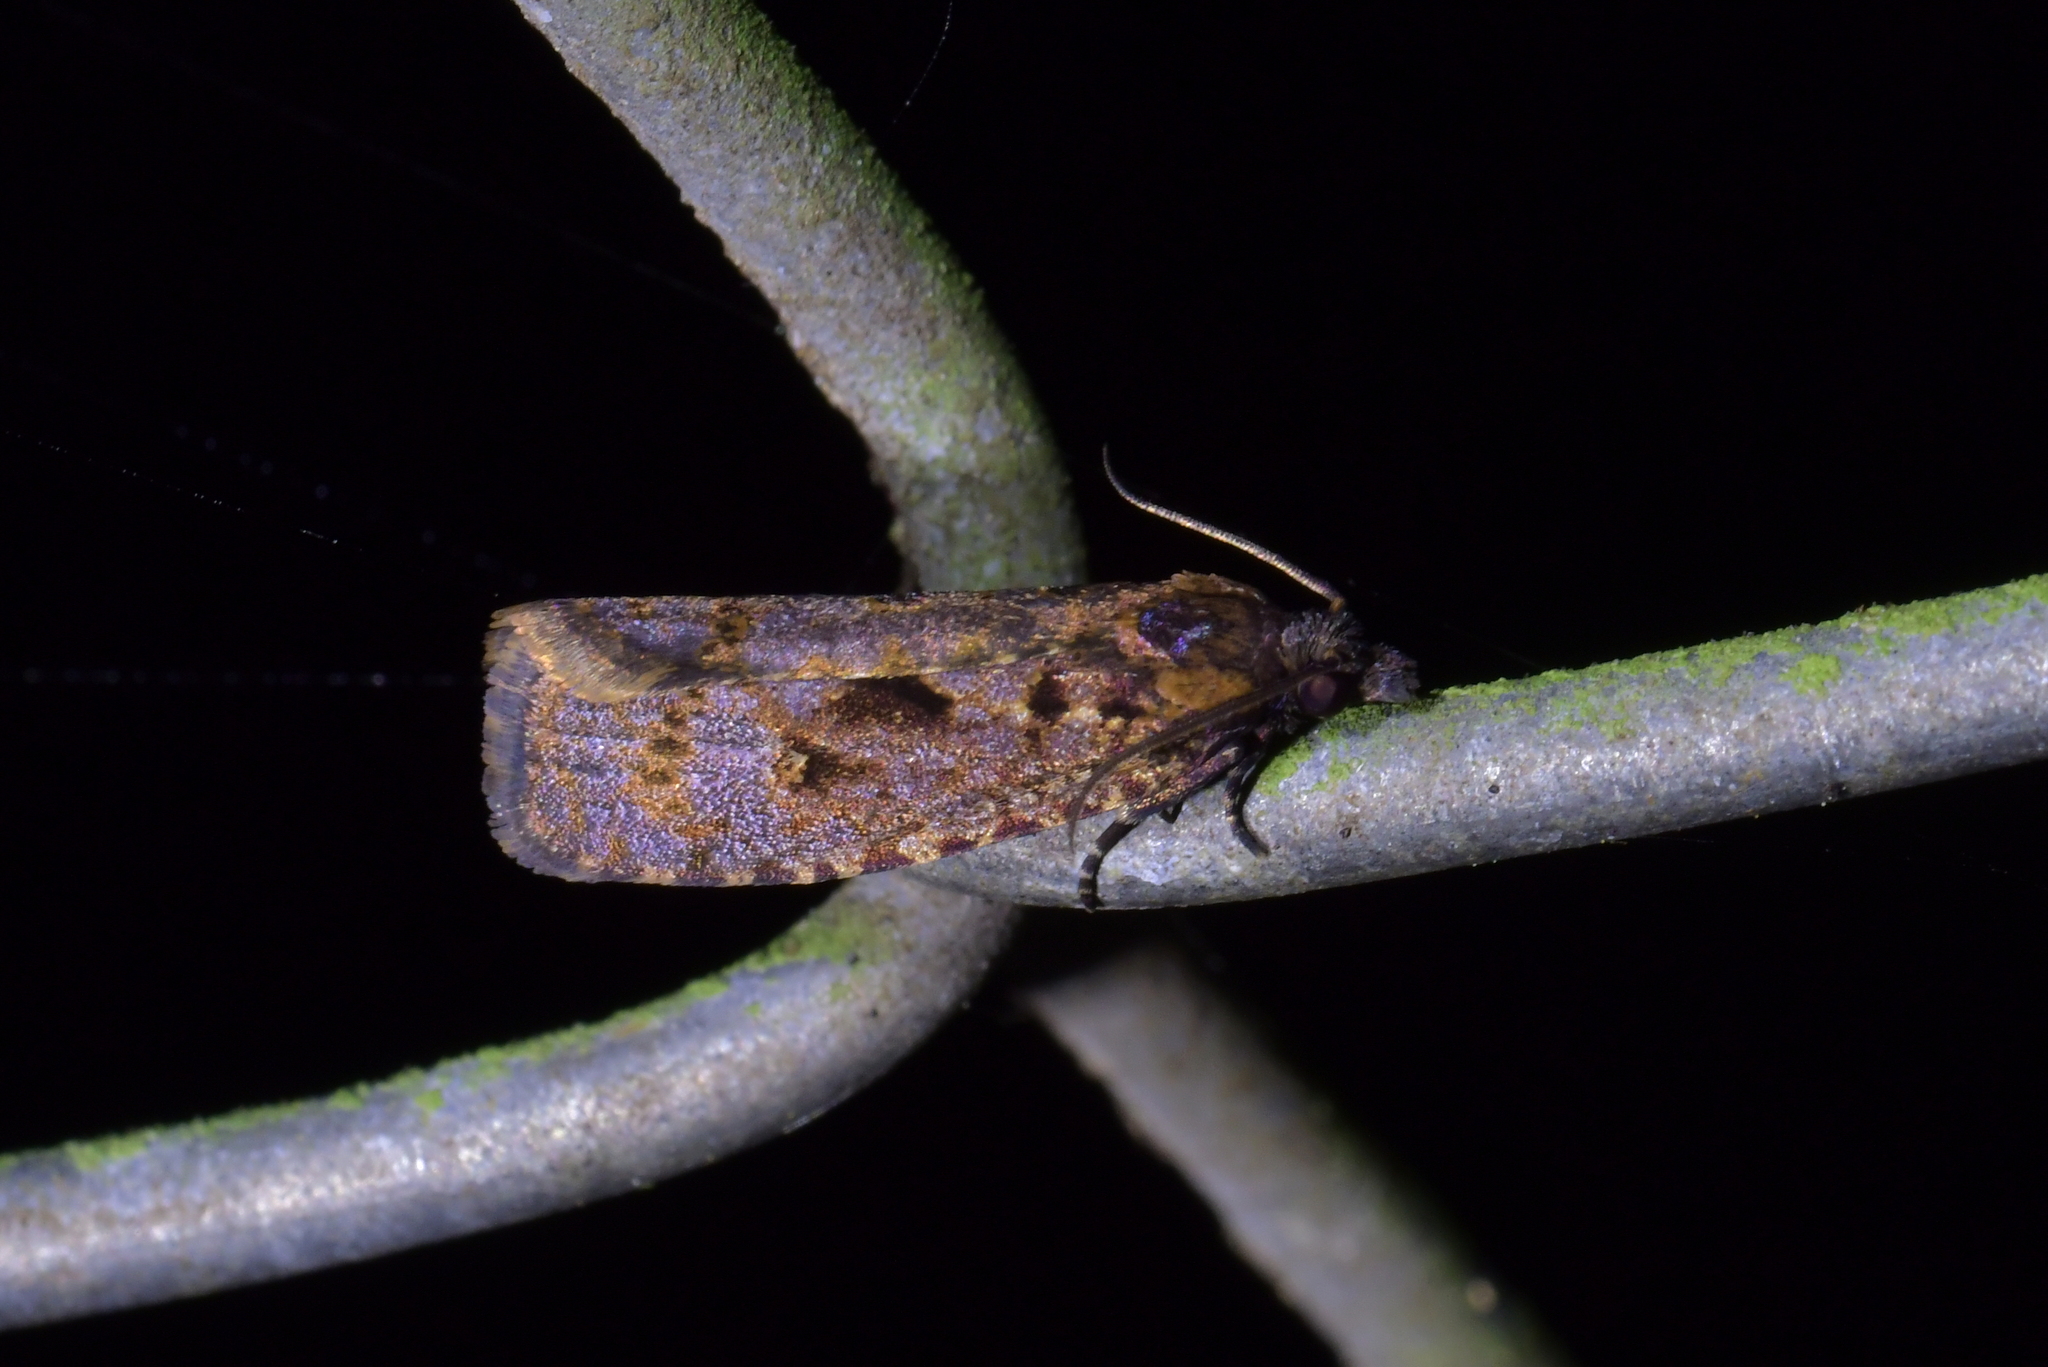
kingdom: Animalia
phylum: Arthropoda
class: Insecta
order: Lepidoptera
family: Tortricidae
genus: Cryptaspasma
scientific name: Cryptaspasma querula
